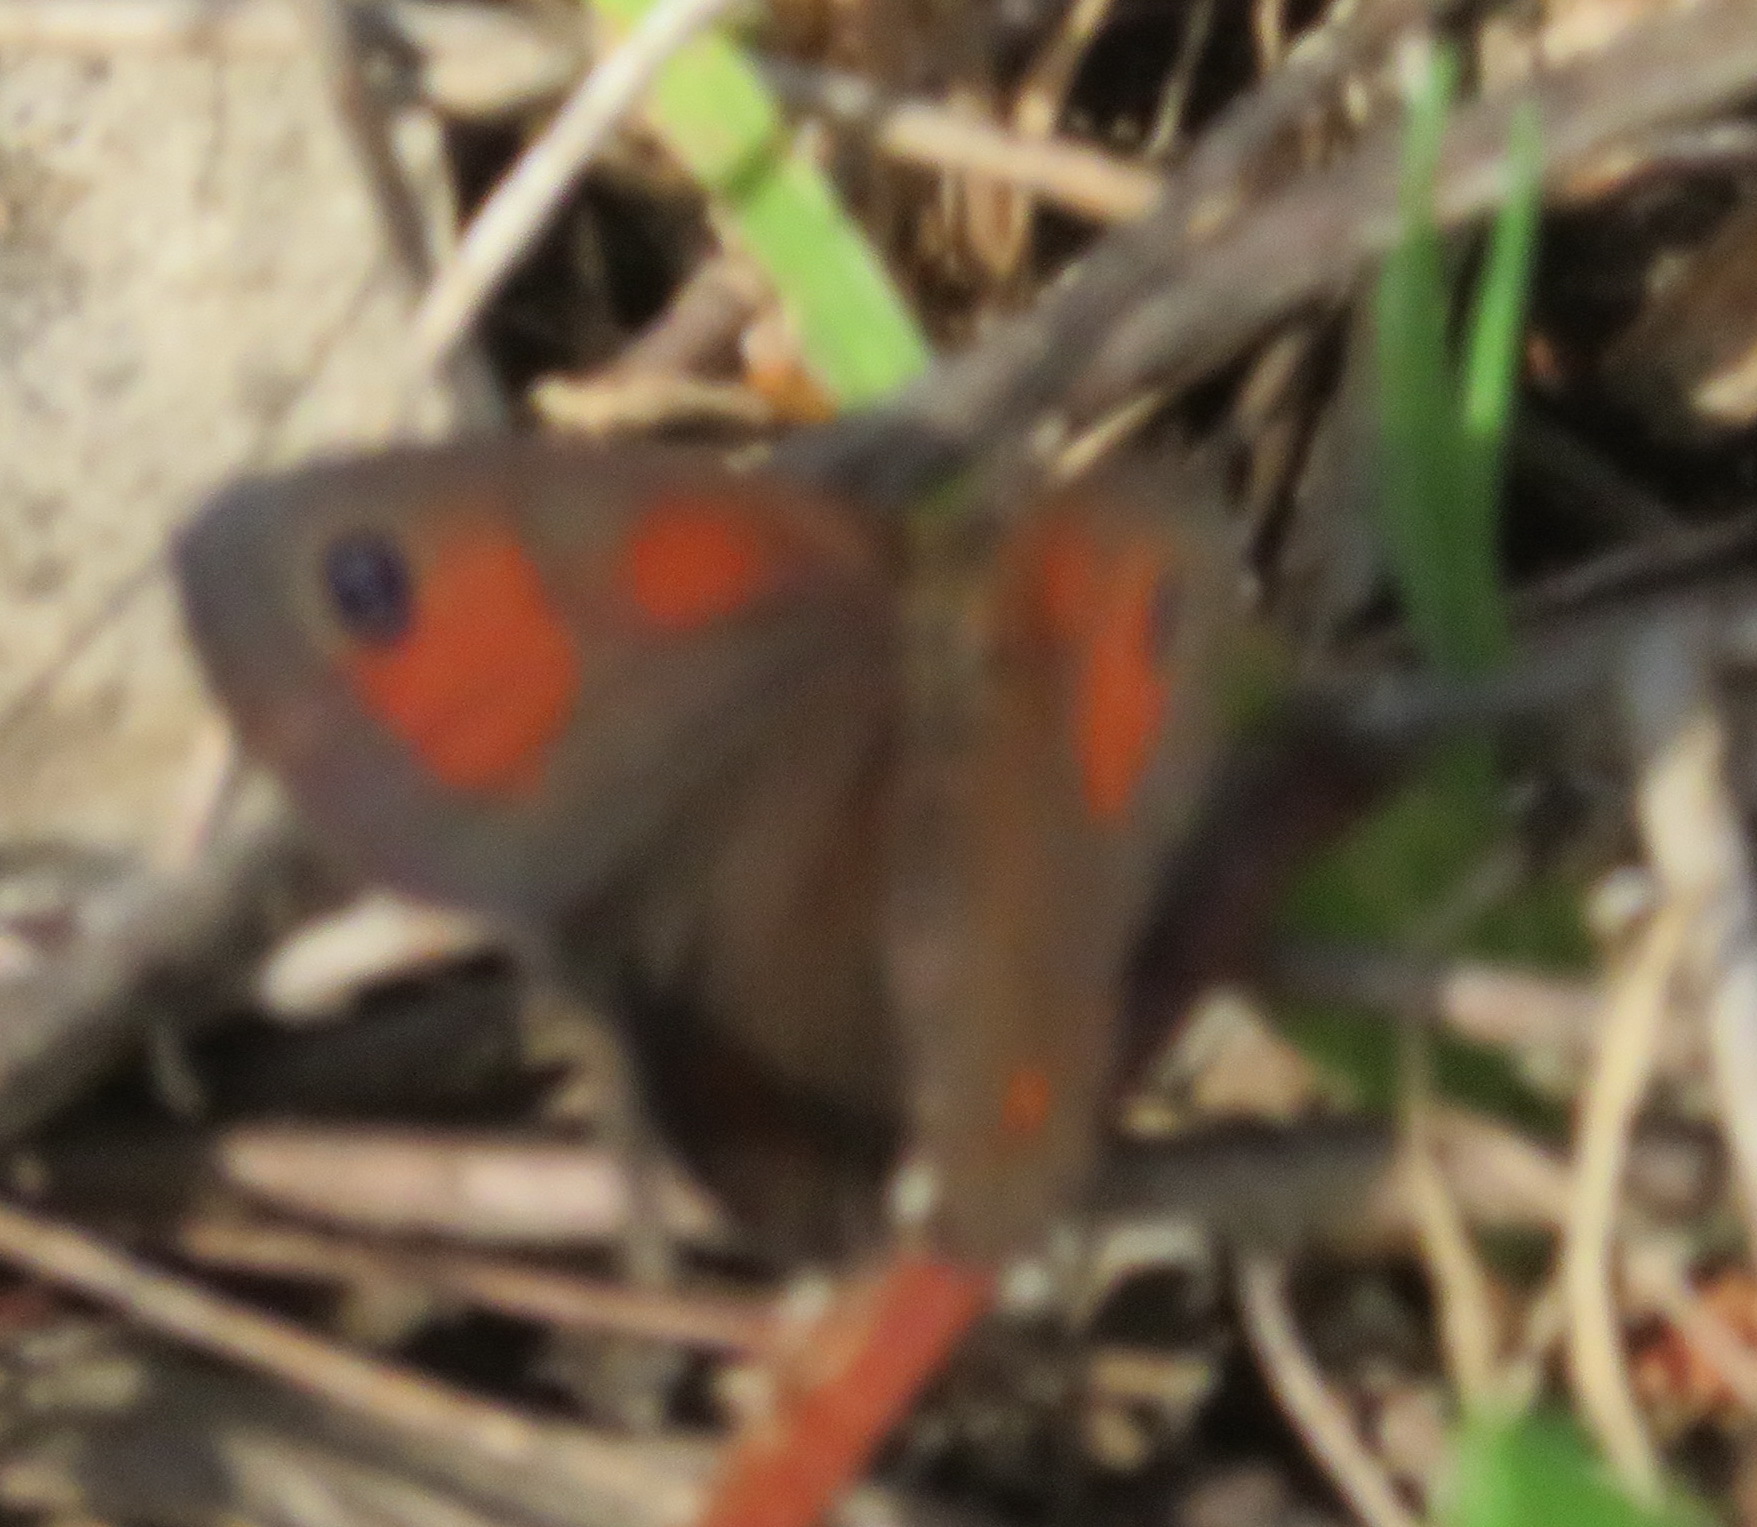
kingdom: Animalia
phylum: Arthropoda
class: Insecta
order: Lepidoptera
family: Nymphalidae
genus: Pseudonympha
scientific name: Pseudonympha magus
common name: Silver-bottom brown
